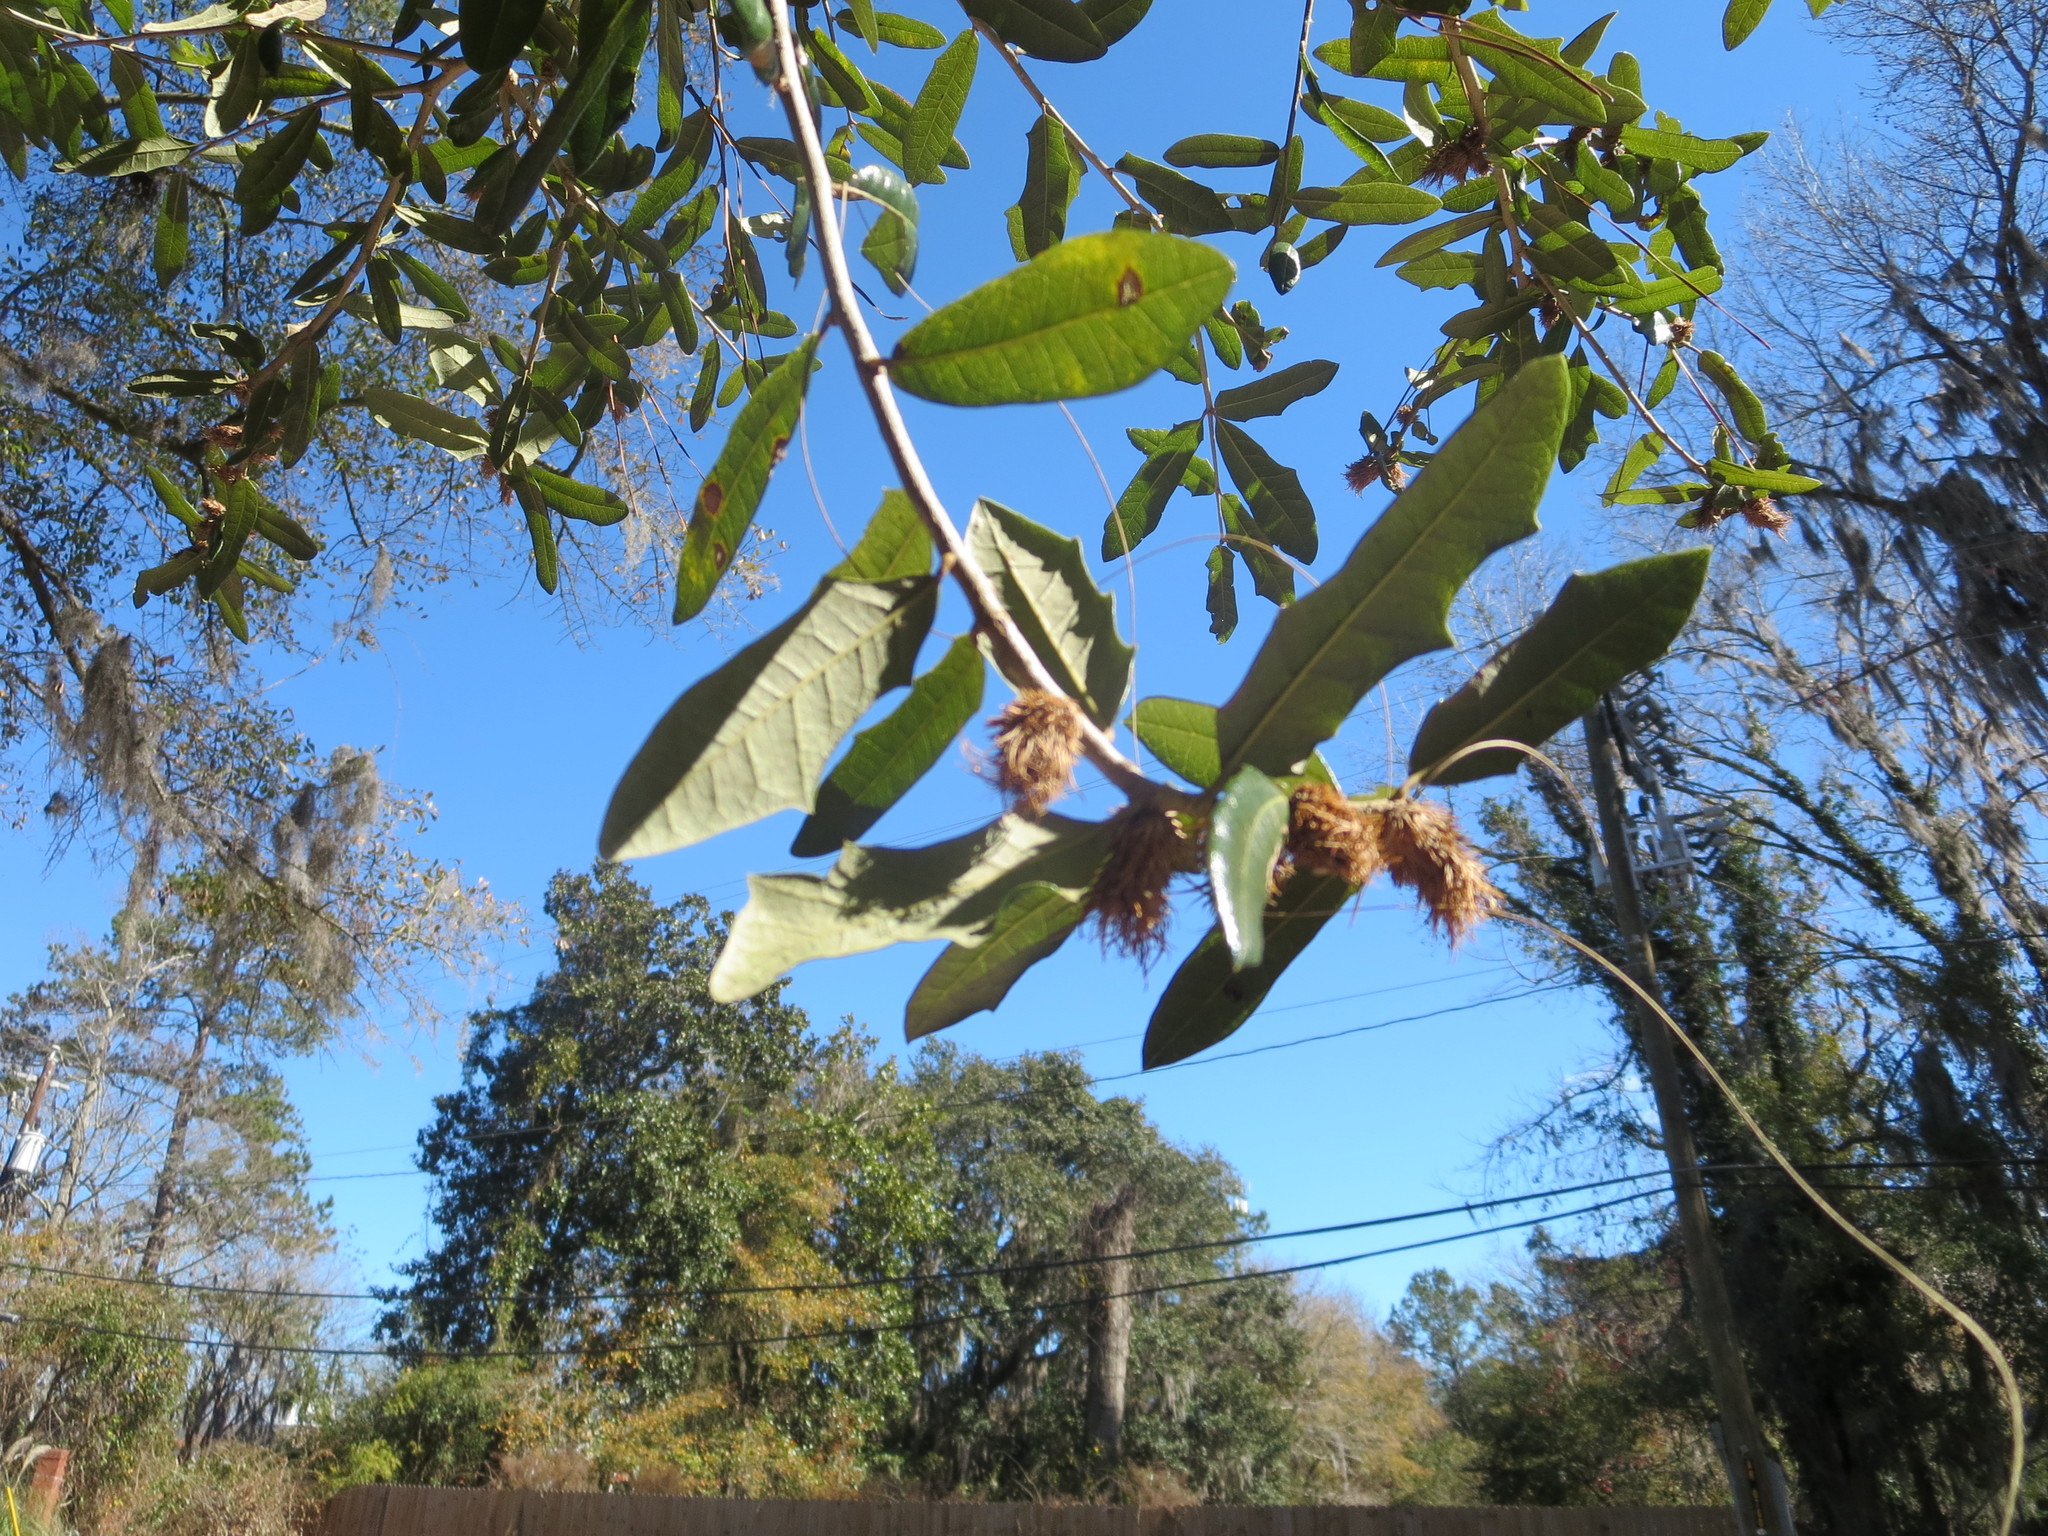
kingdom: Animalia
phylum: Arthropoda
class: Insecta
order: Hymenoptera
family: Cynipidae
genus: Andricus
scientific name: Andricus quercusfoliatus
